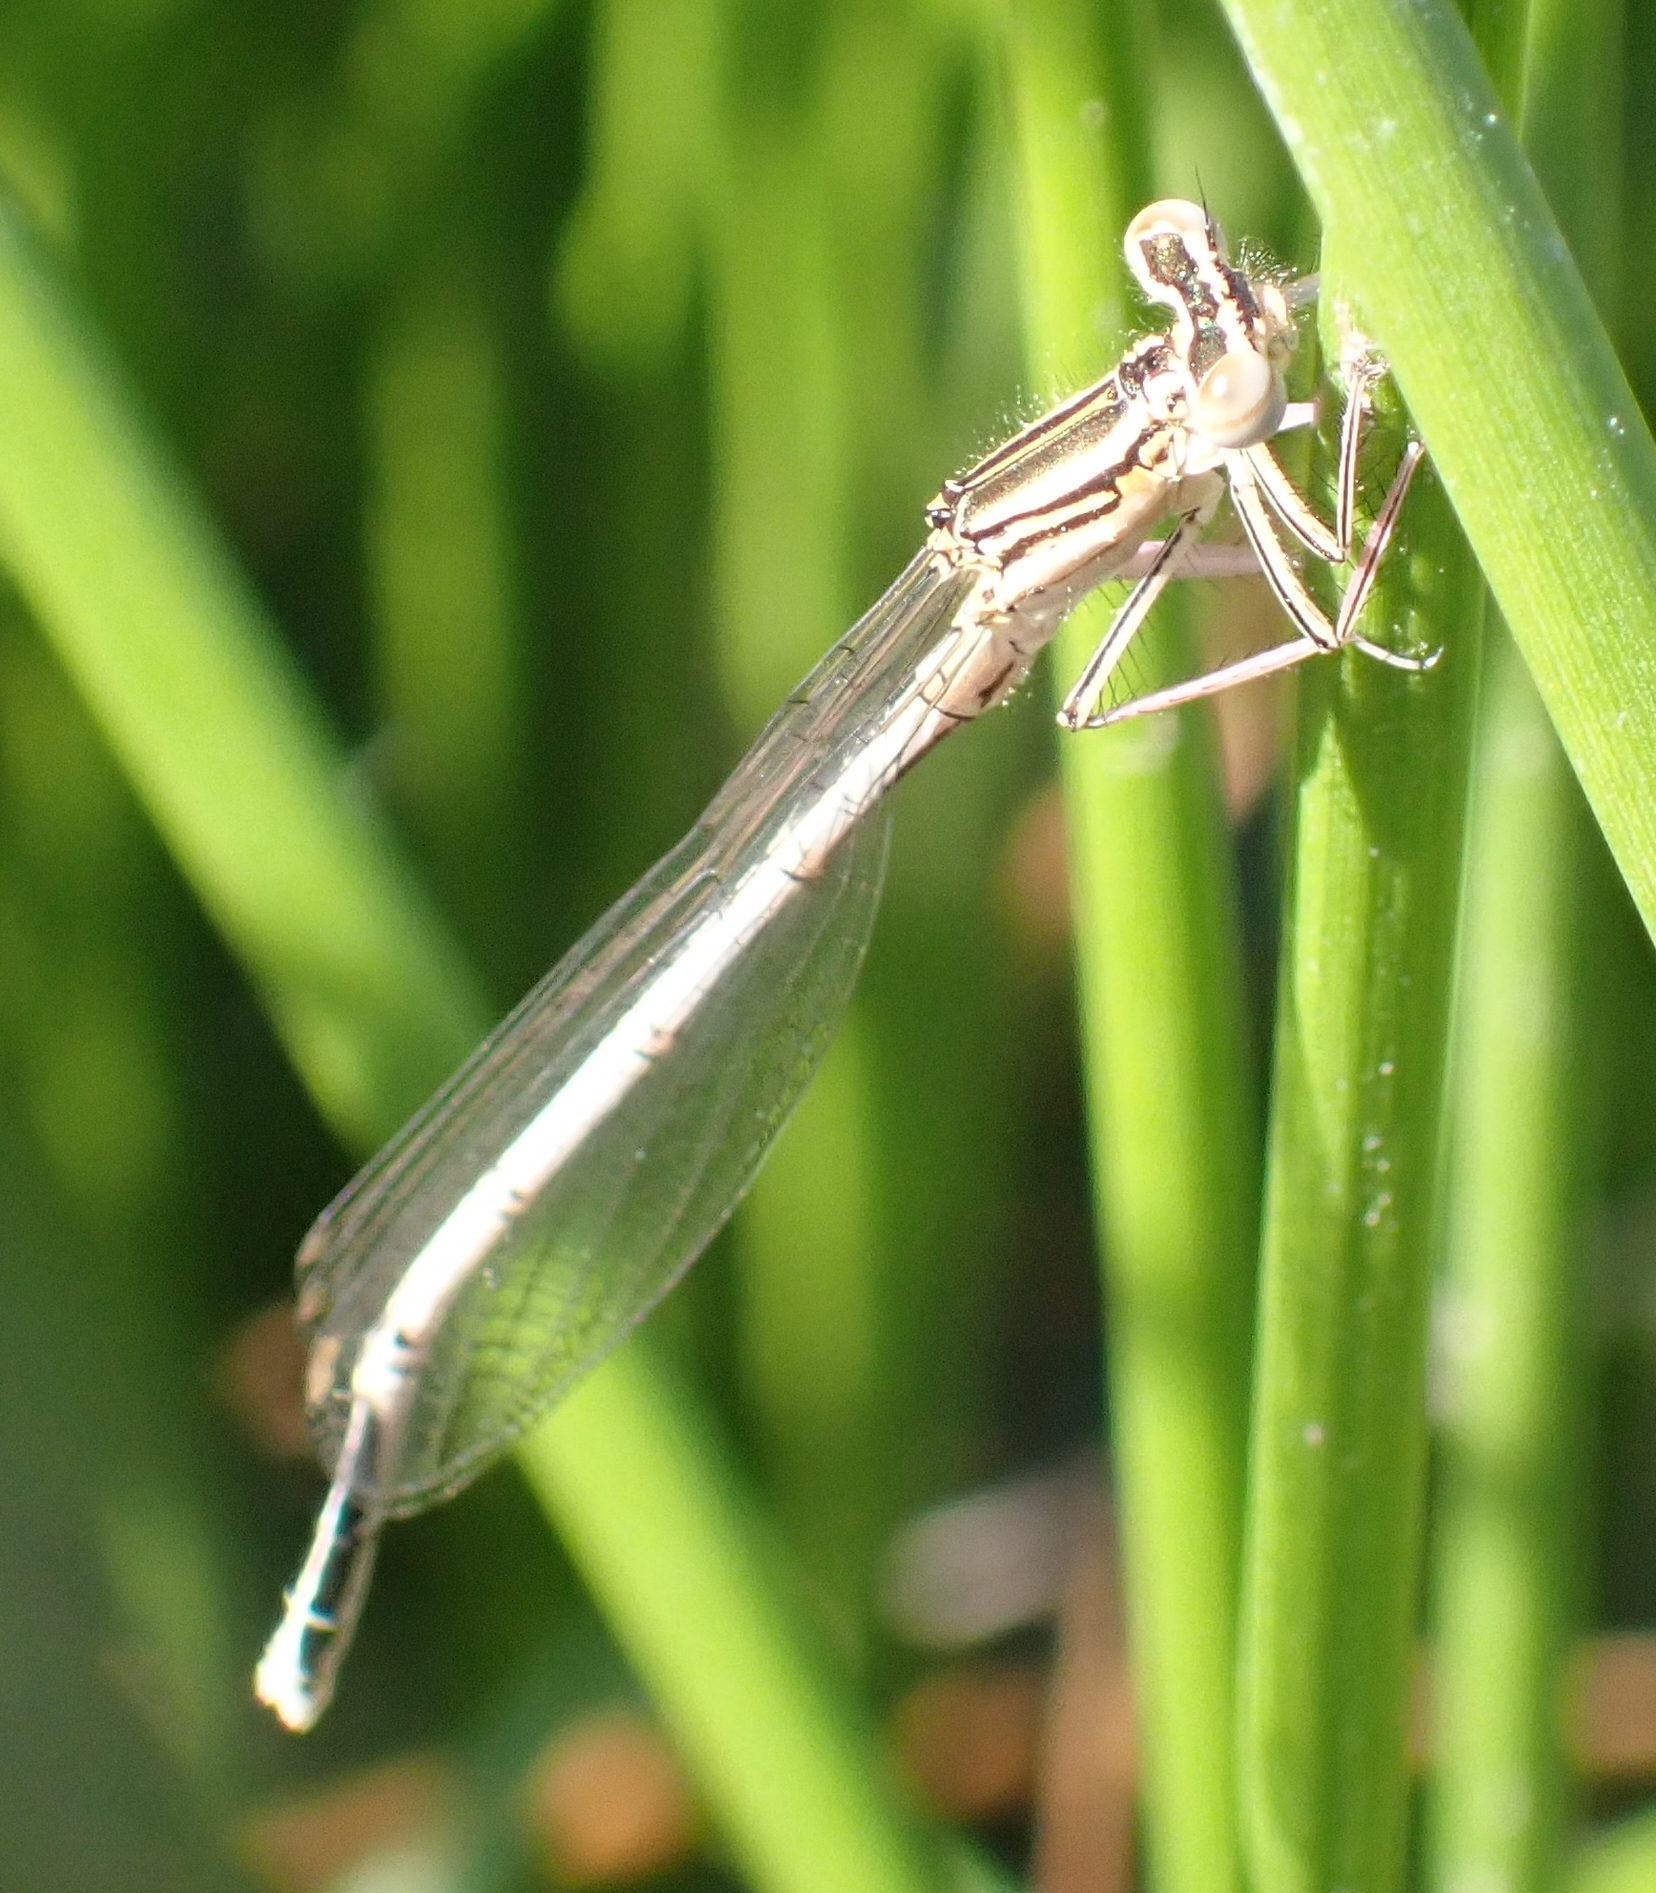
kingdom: Animalia
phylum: Arthropoda
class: Insecta
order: Odonata
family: Platycnemididae
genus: Platycnemis
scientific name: Platycnemis pennipes
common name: White-legged damselfly
